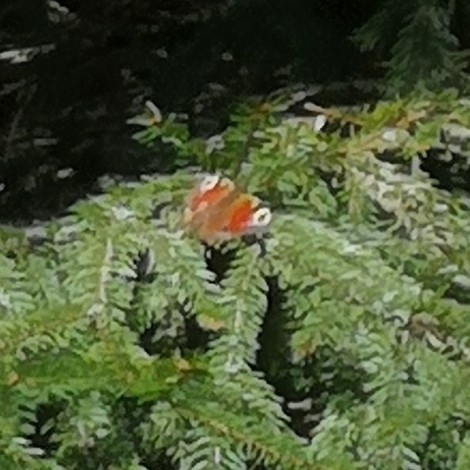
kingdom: Animalia
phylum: Arthropoda
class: Insecta
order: Lepidoptera
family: Nymphalidae
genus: Aglais
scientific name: Aglais io
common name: Peacock
